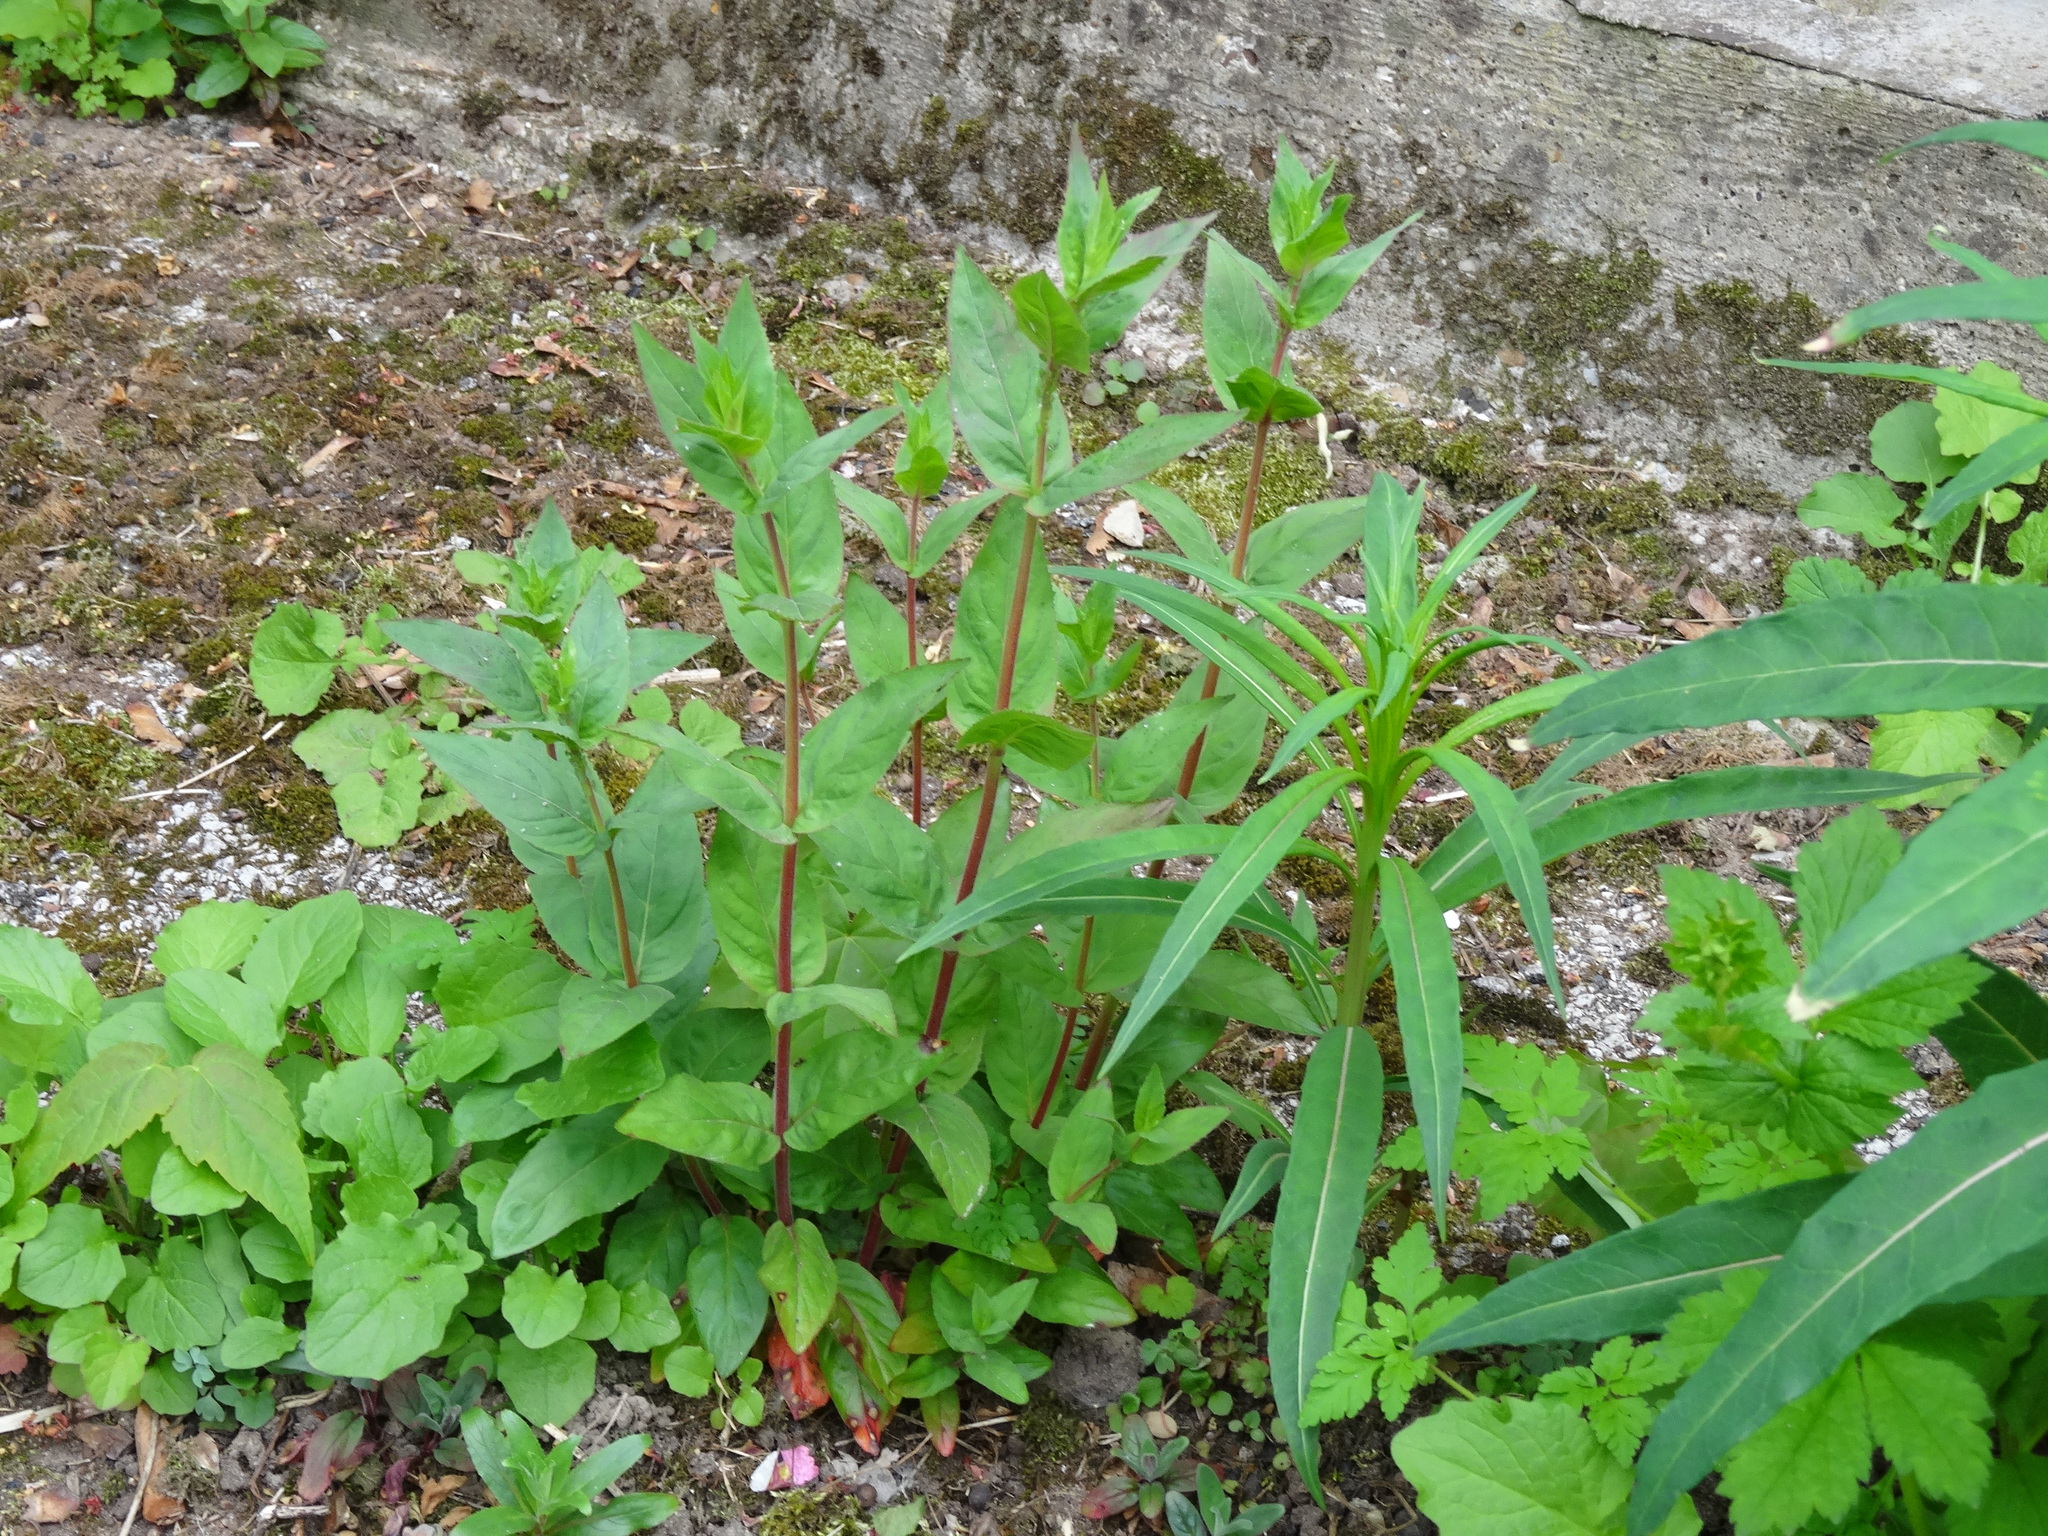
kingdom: Plantae
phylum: Tracheophyta
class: Magnoliopsida
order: Myrtales
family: Onagraceae
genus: Epilobium
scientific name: Epilobium montanum
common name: Broad-leaved willowherb
